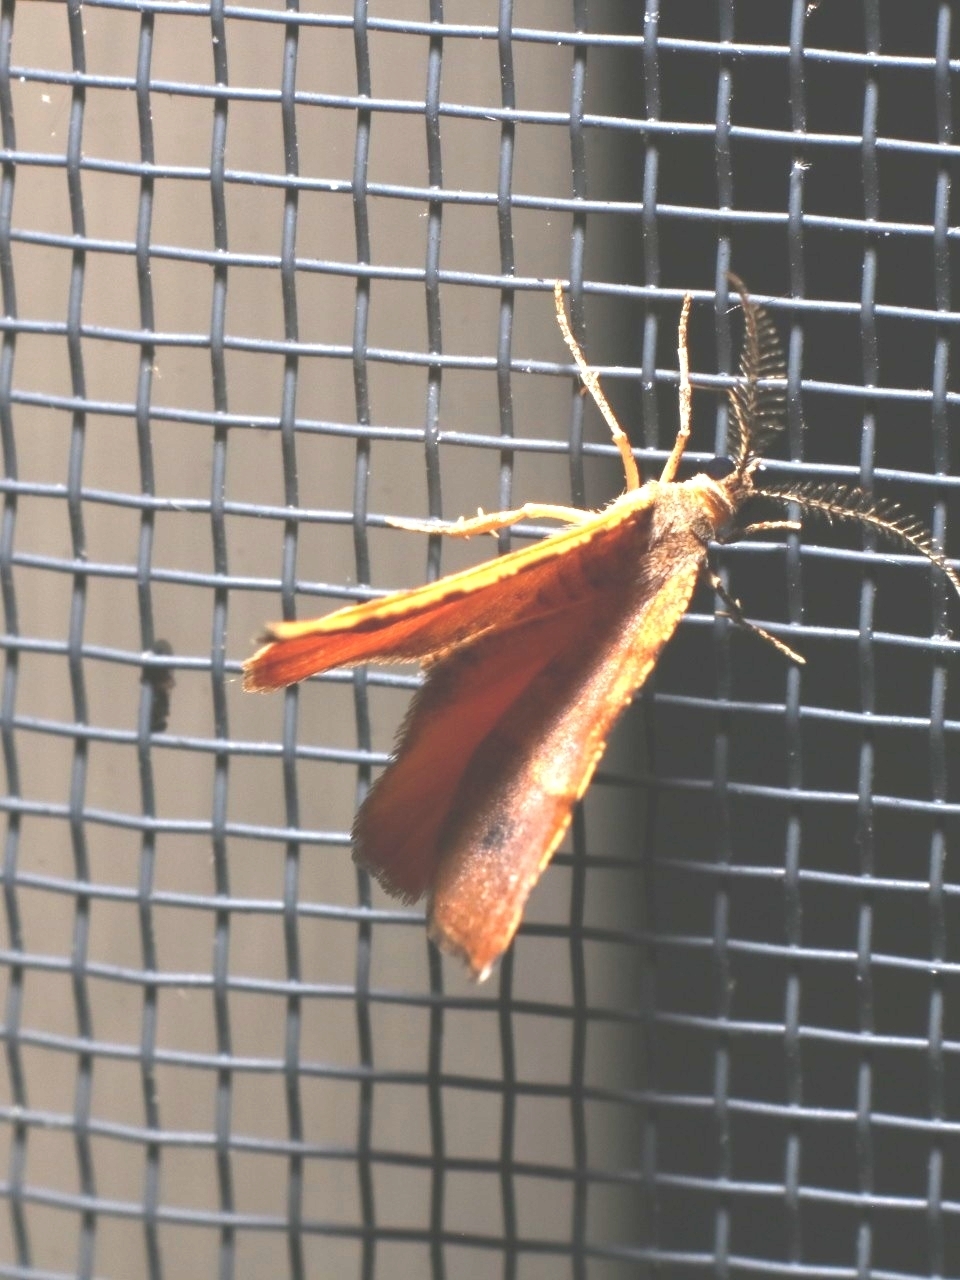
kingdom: Animalia
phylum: Arthropoda
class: Insecta
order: Lepidoptera
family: Geometridae
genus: Mellilla
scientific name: Mellilla xanthometata
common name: Orange wing moth
